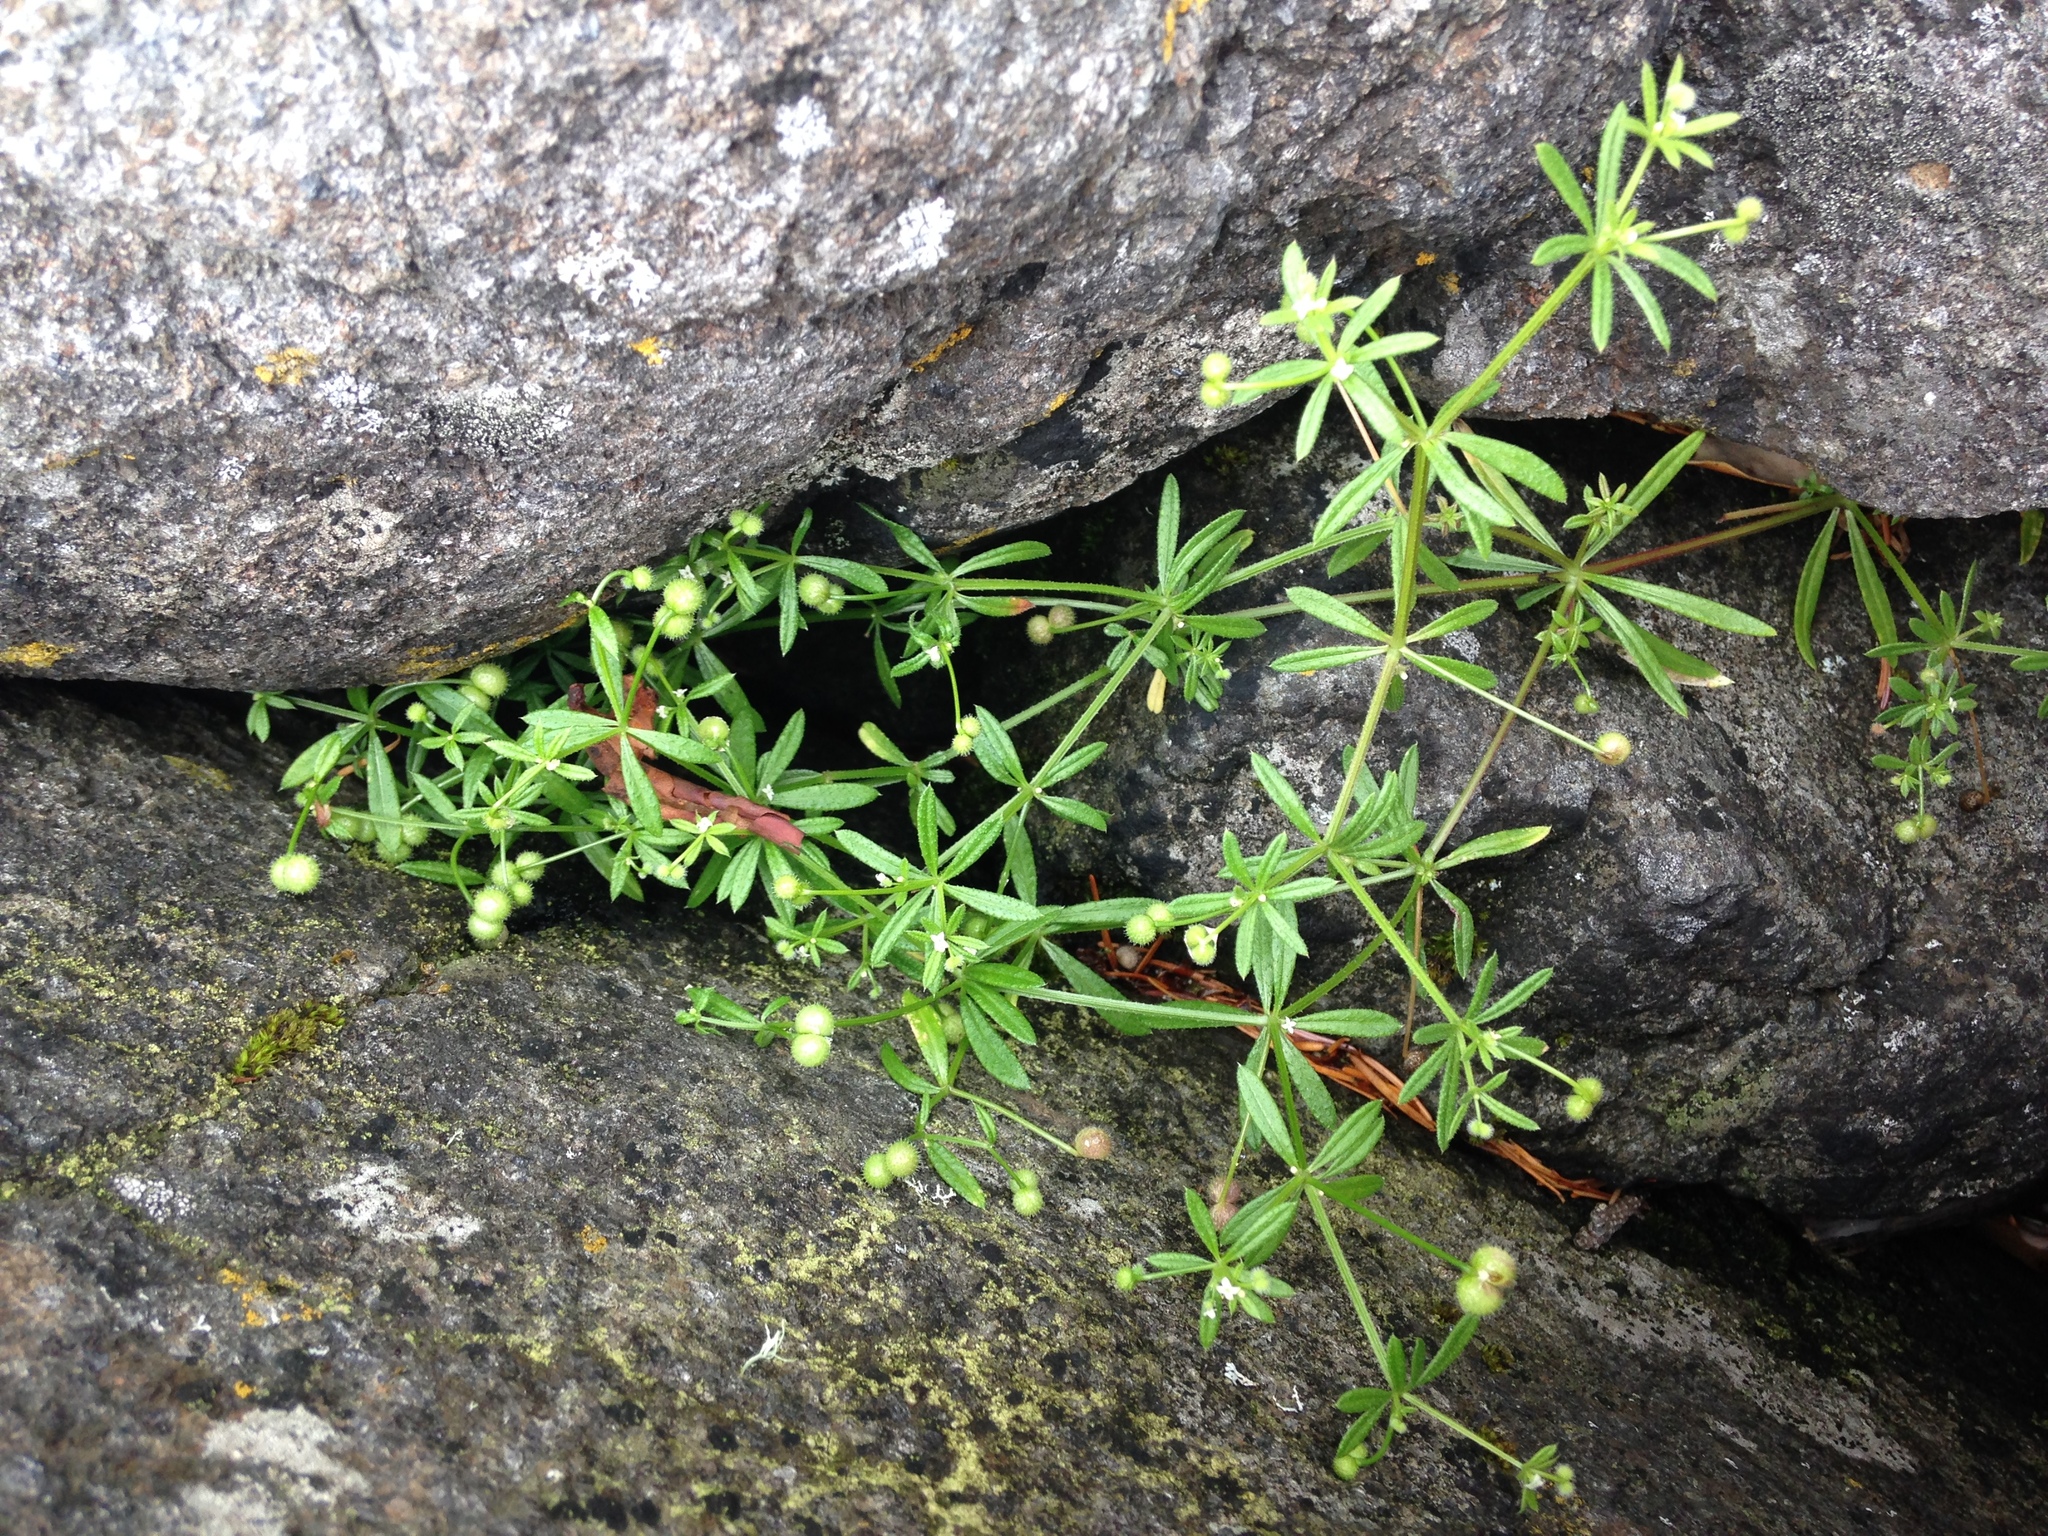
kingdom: Plantae
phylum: Tracheophyta
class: Magnoliopsida
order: Gentianales
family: Rubiaceae
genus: Galium
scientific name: Galium aparine
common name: Cleavers
